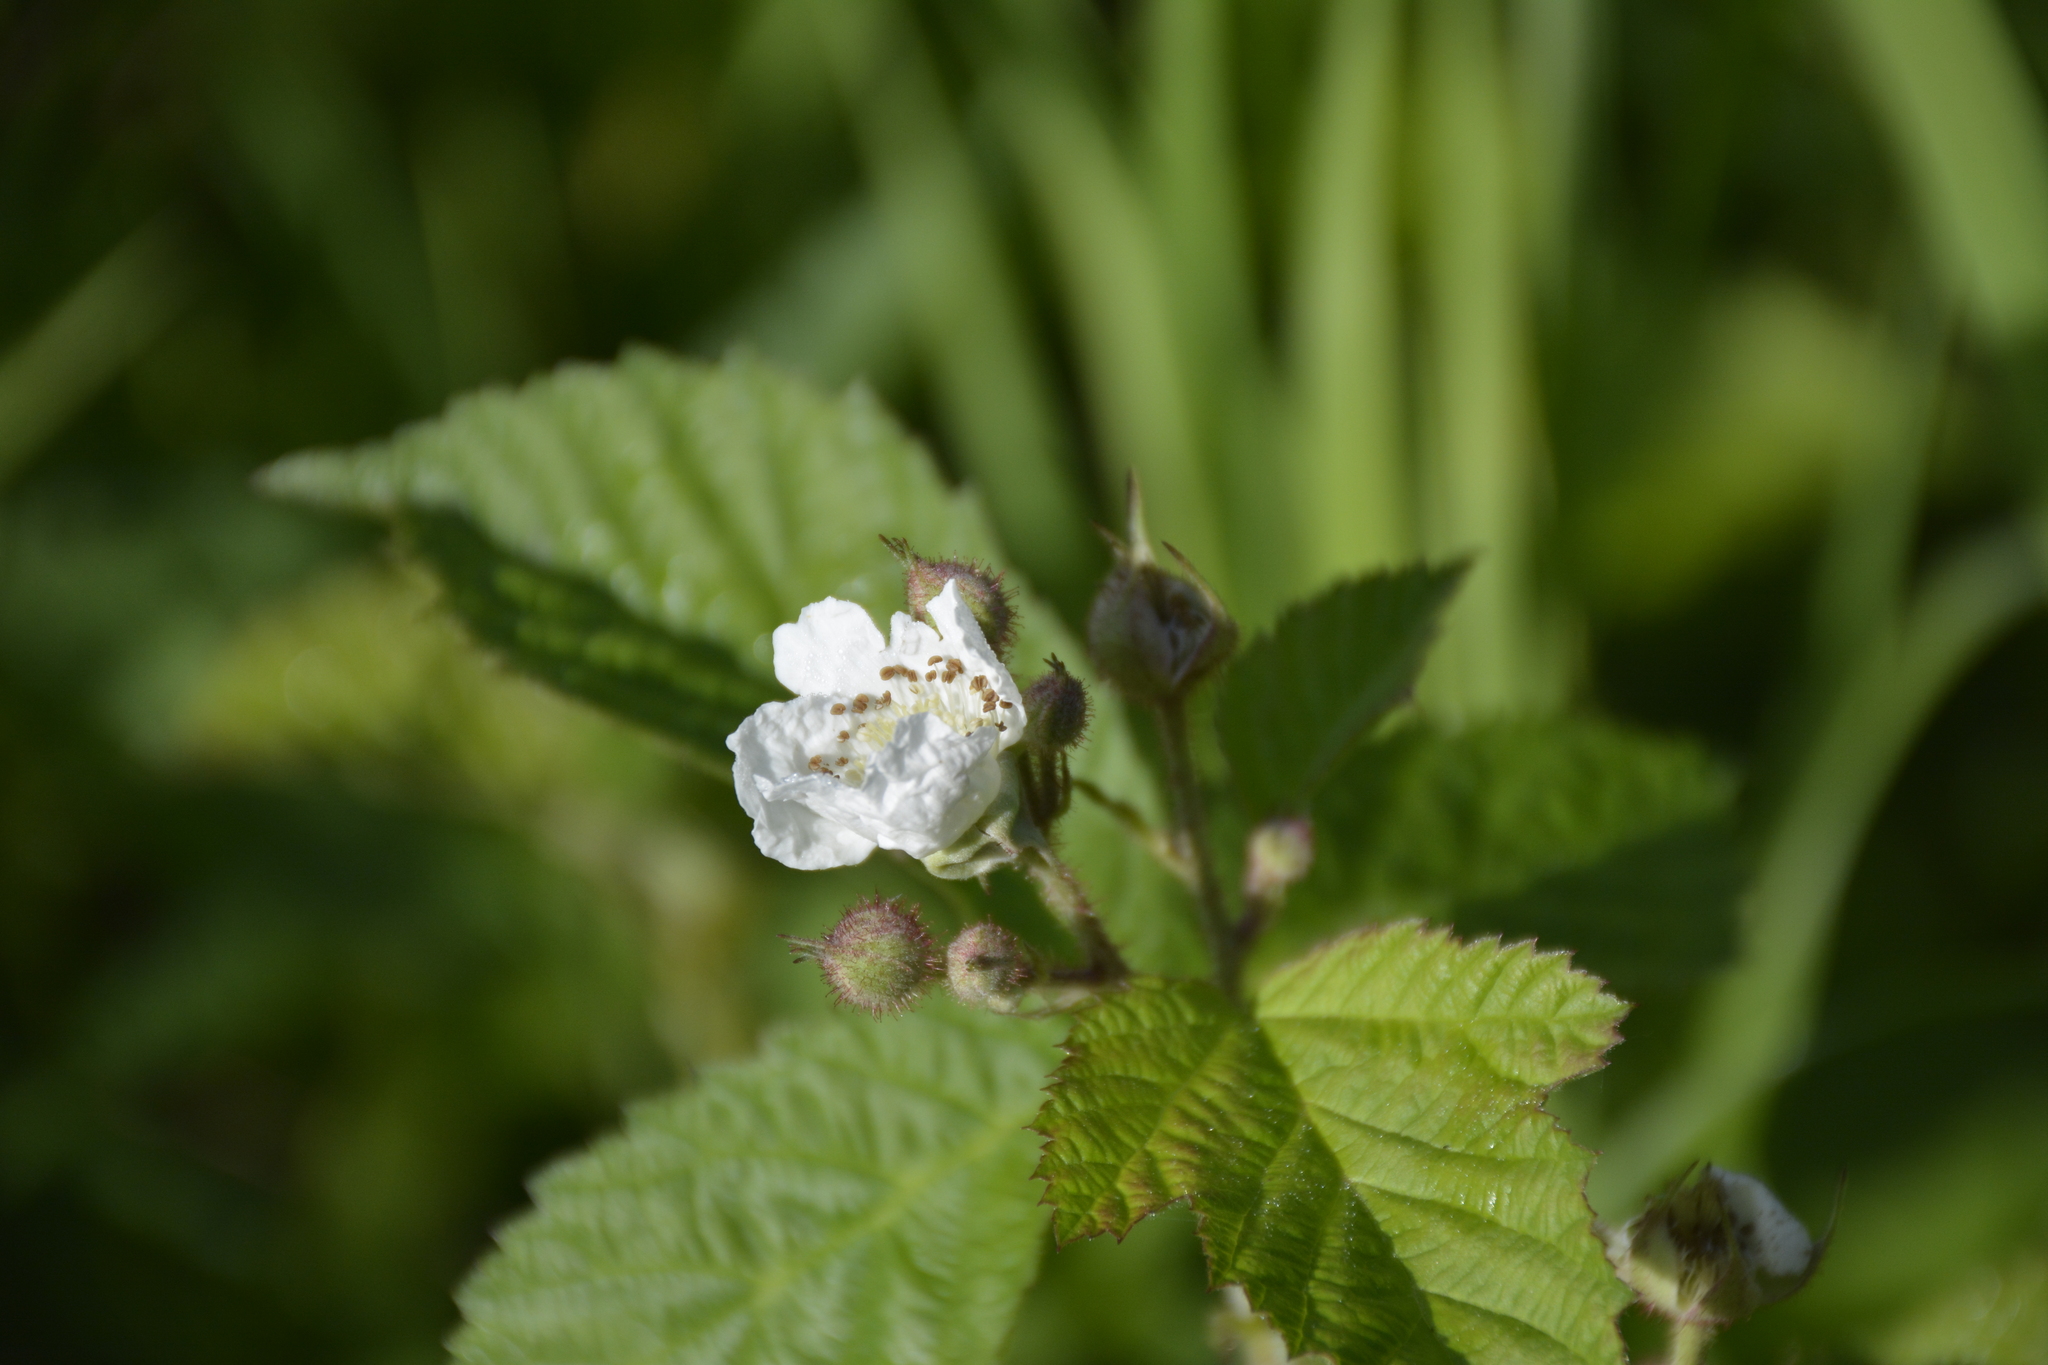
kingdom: Plantae
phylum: Tracheophyta
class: Magnoliopsida
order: Rosales
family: Rosaceae
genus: Rubus
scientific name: Rubus caesius
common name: Dewberry
